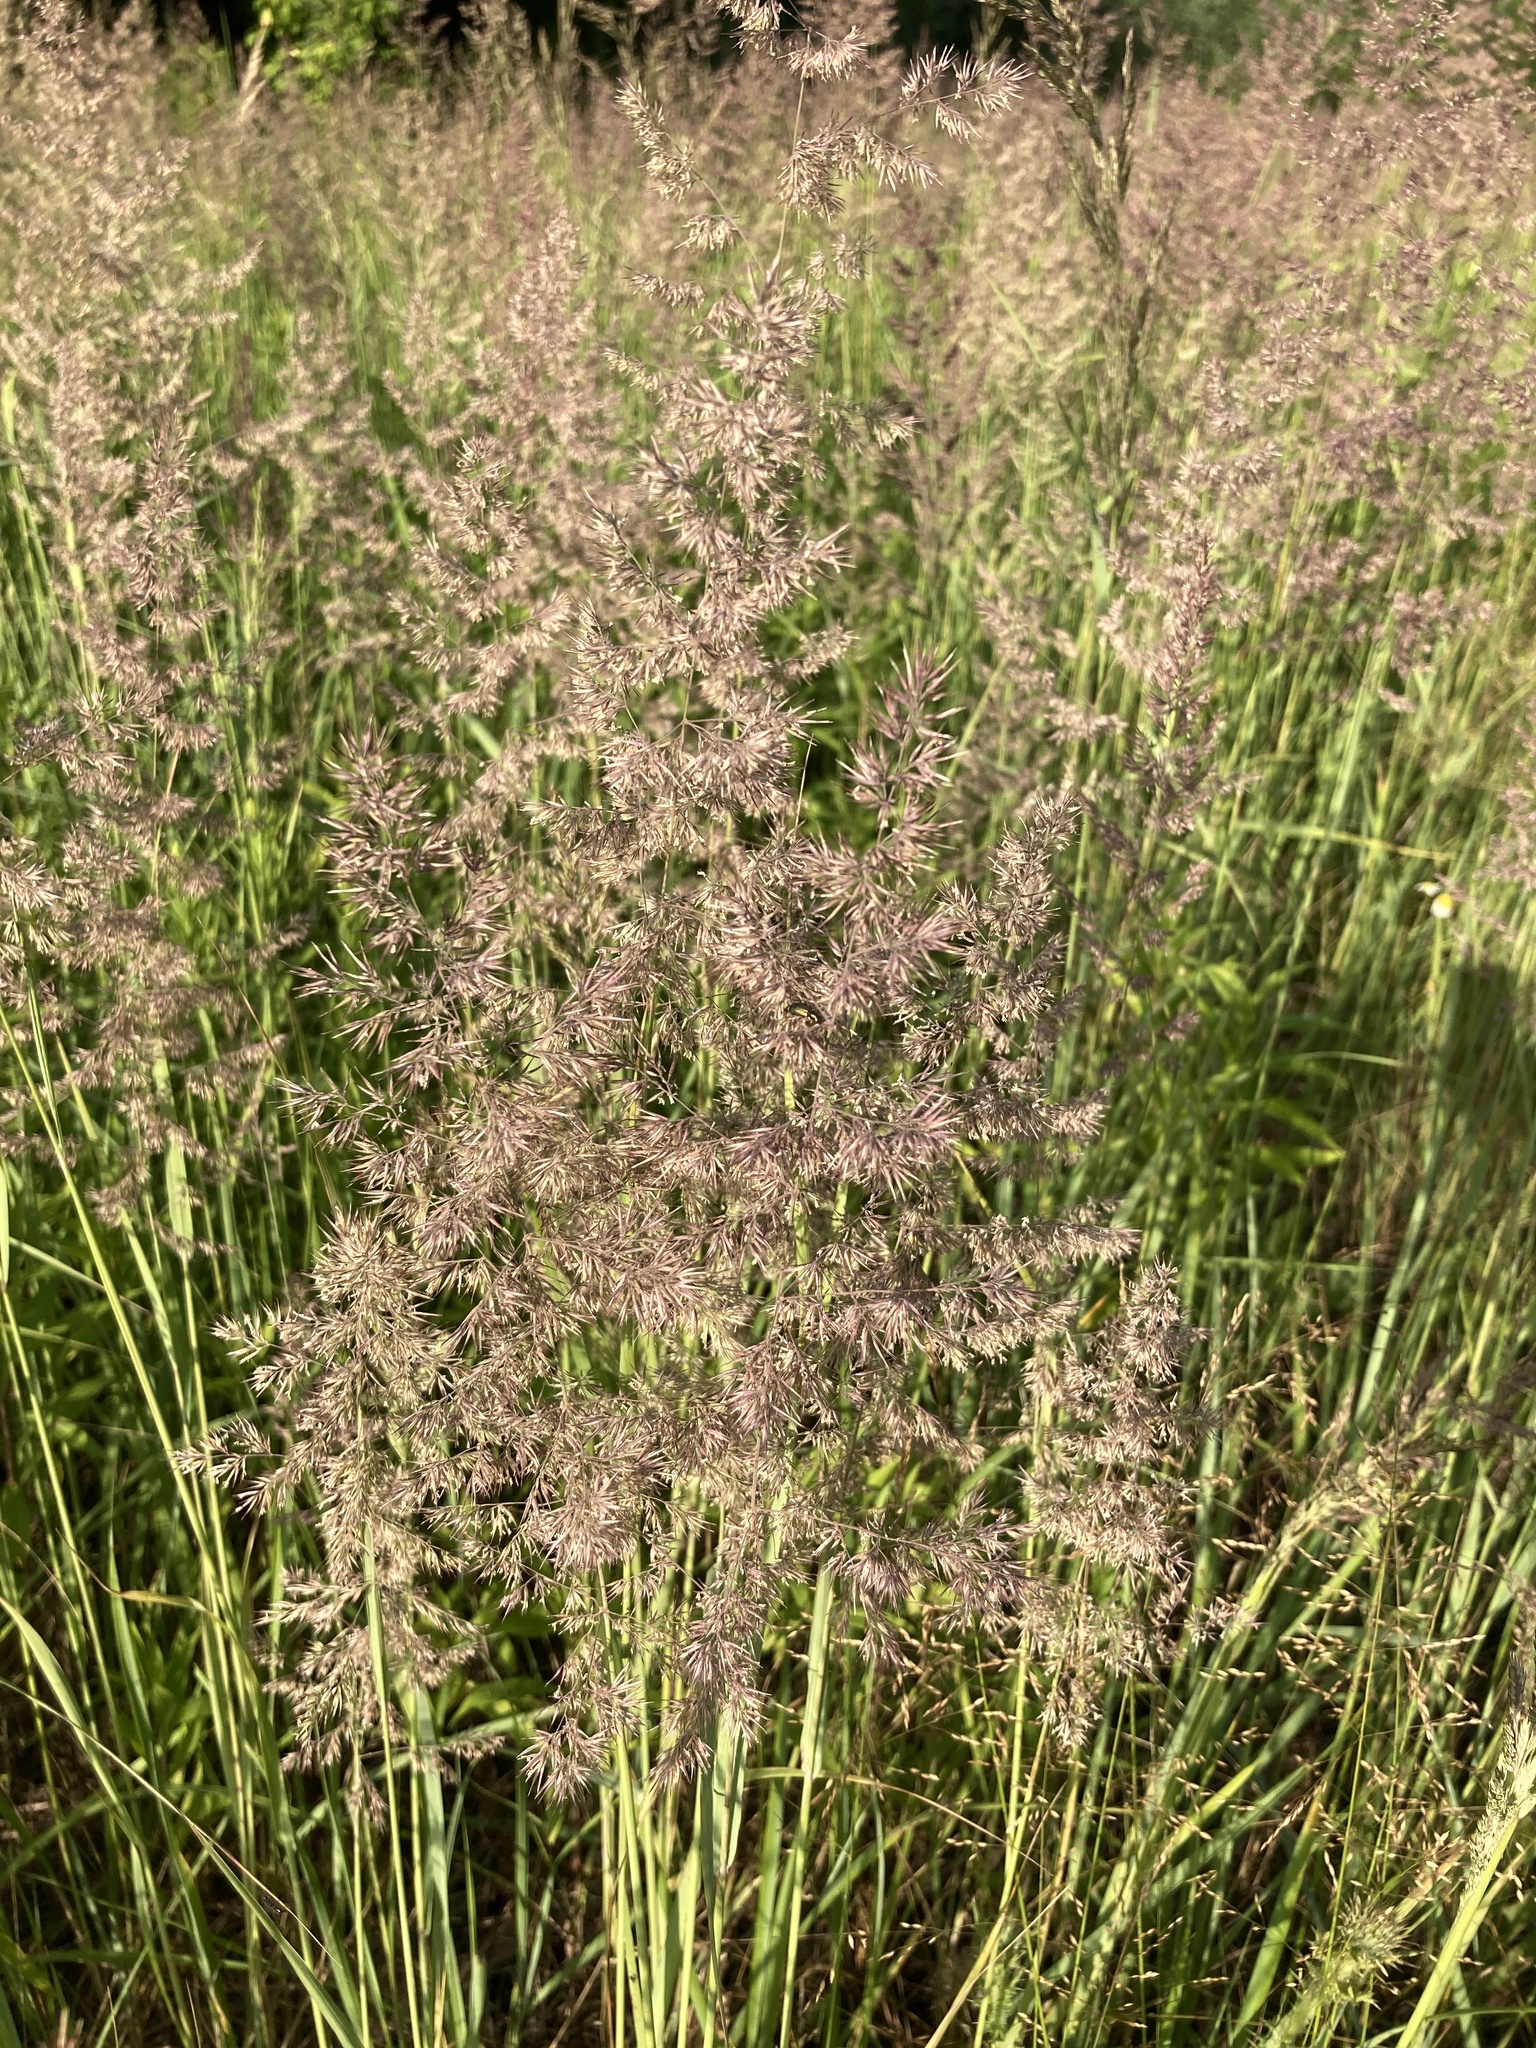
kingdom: Plantae
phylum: Tracheophyta
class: Liliopsida
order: Poales
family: Poaceae
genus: Calamagrostis
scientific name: Calamagrostis epigejos
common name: Wood small-reed
